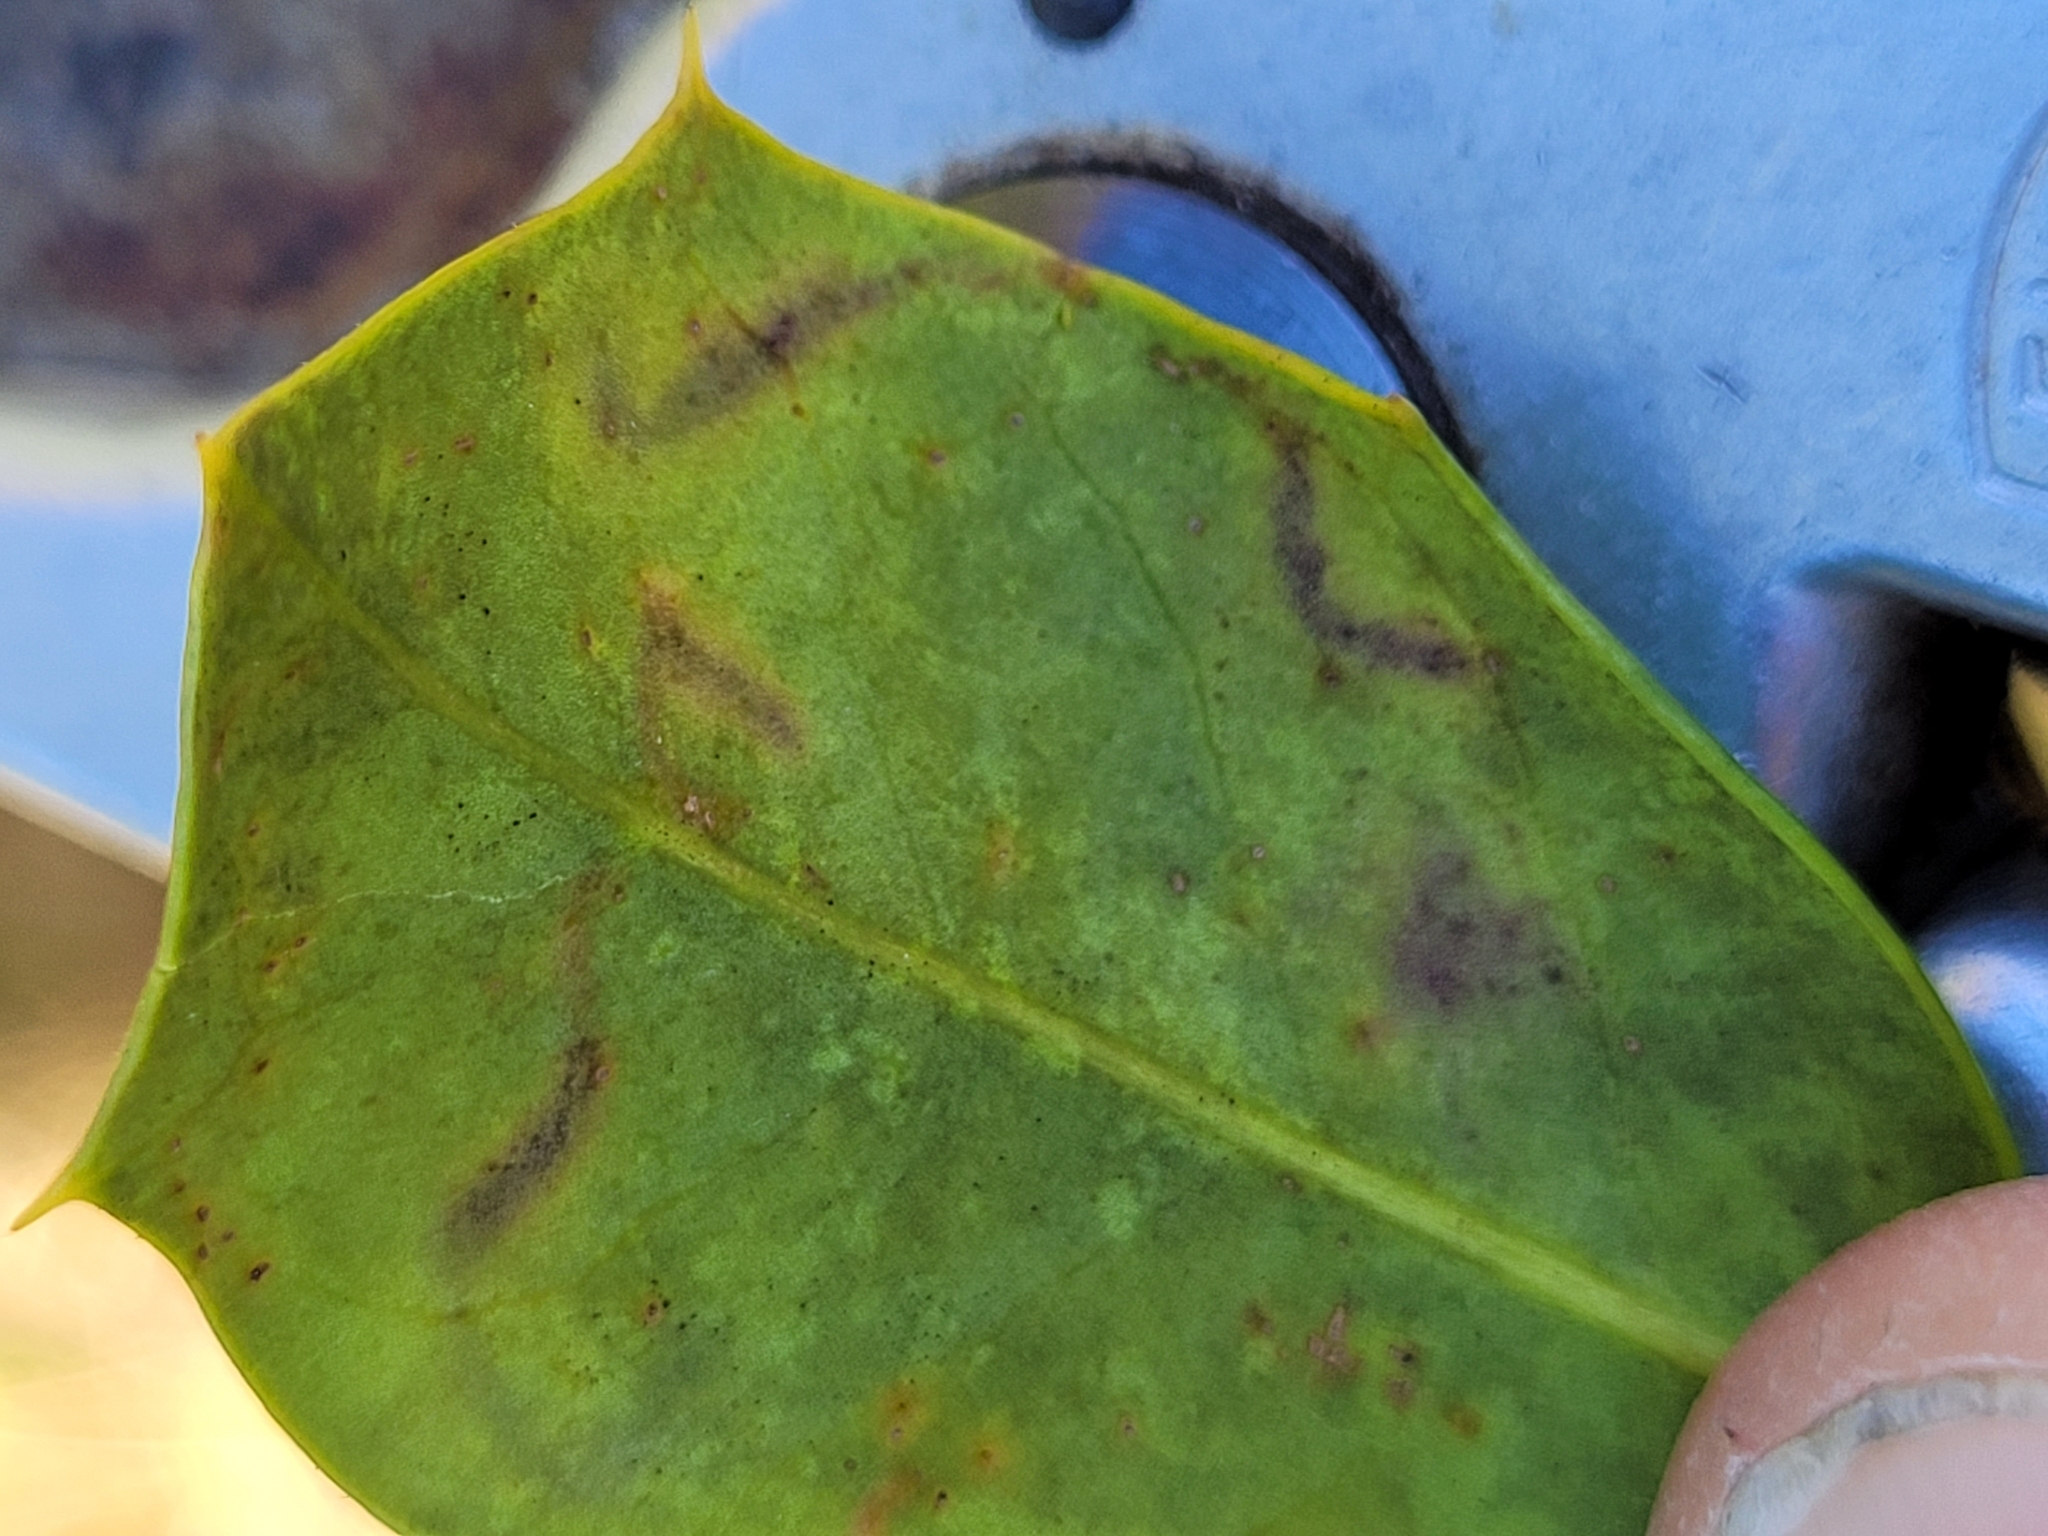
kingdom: Animalia
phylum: Arthropoda
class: Insecta
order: Diptera
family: Agromyzidae
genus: Phytomyza
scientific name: Phytomyza ilicicola
